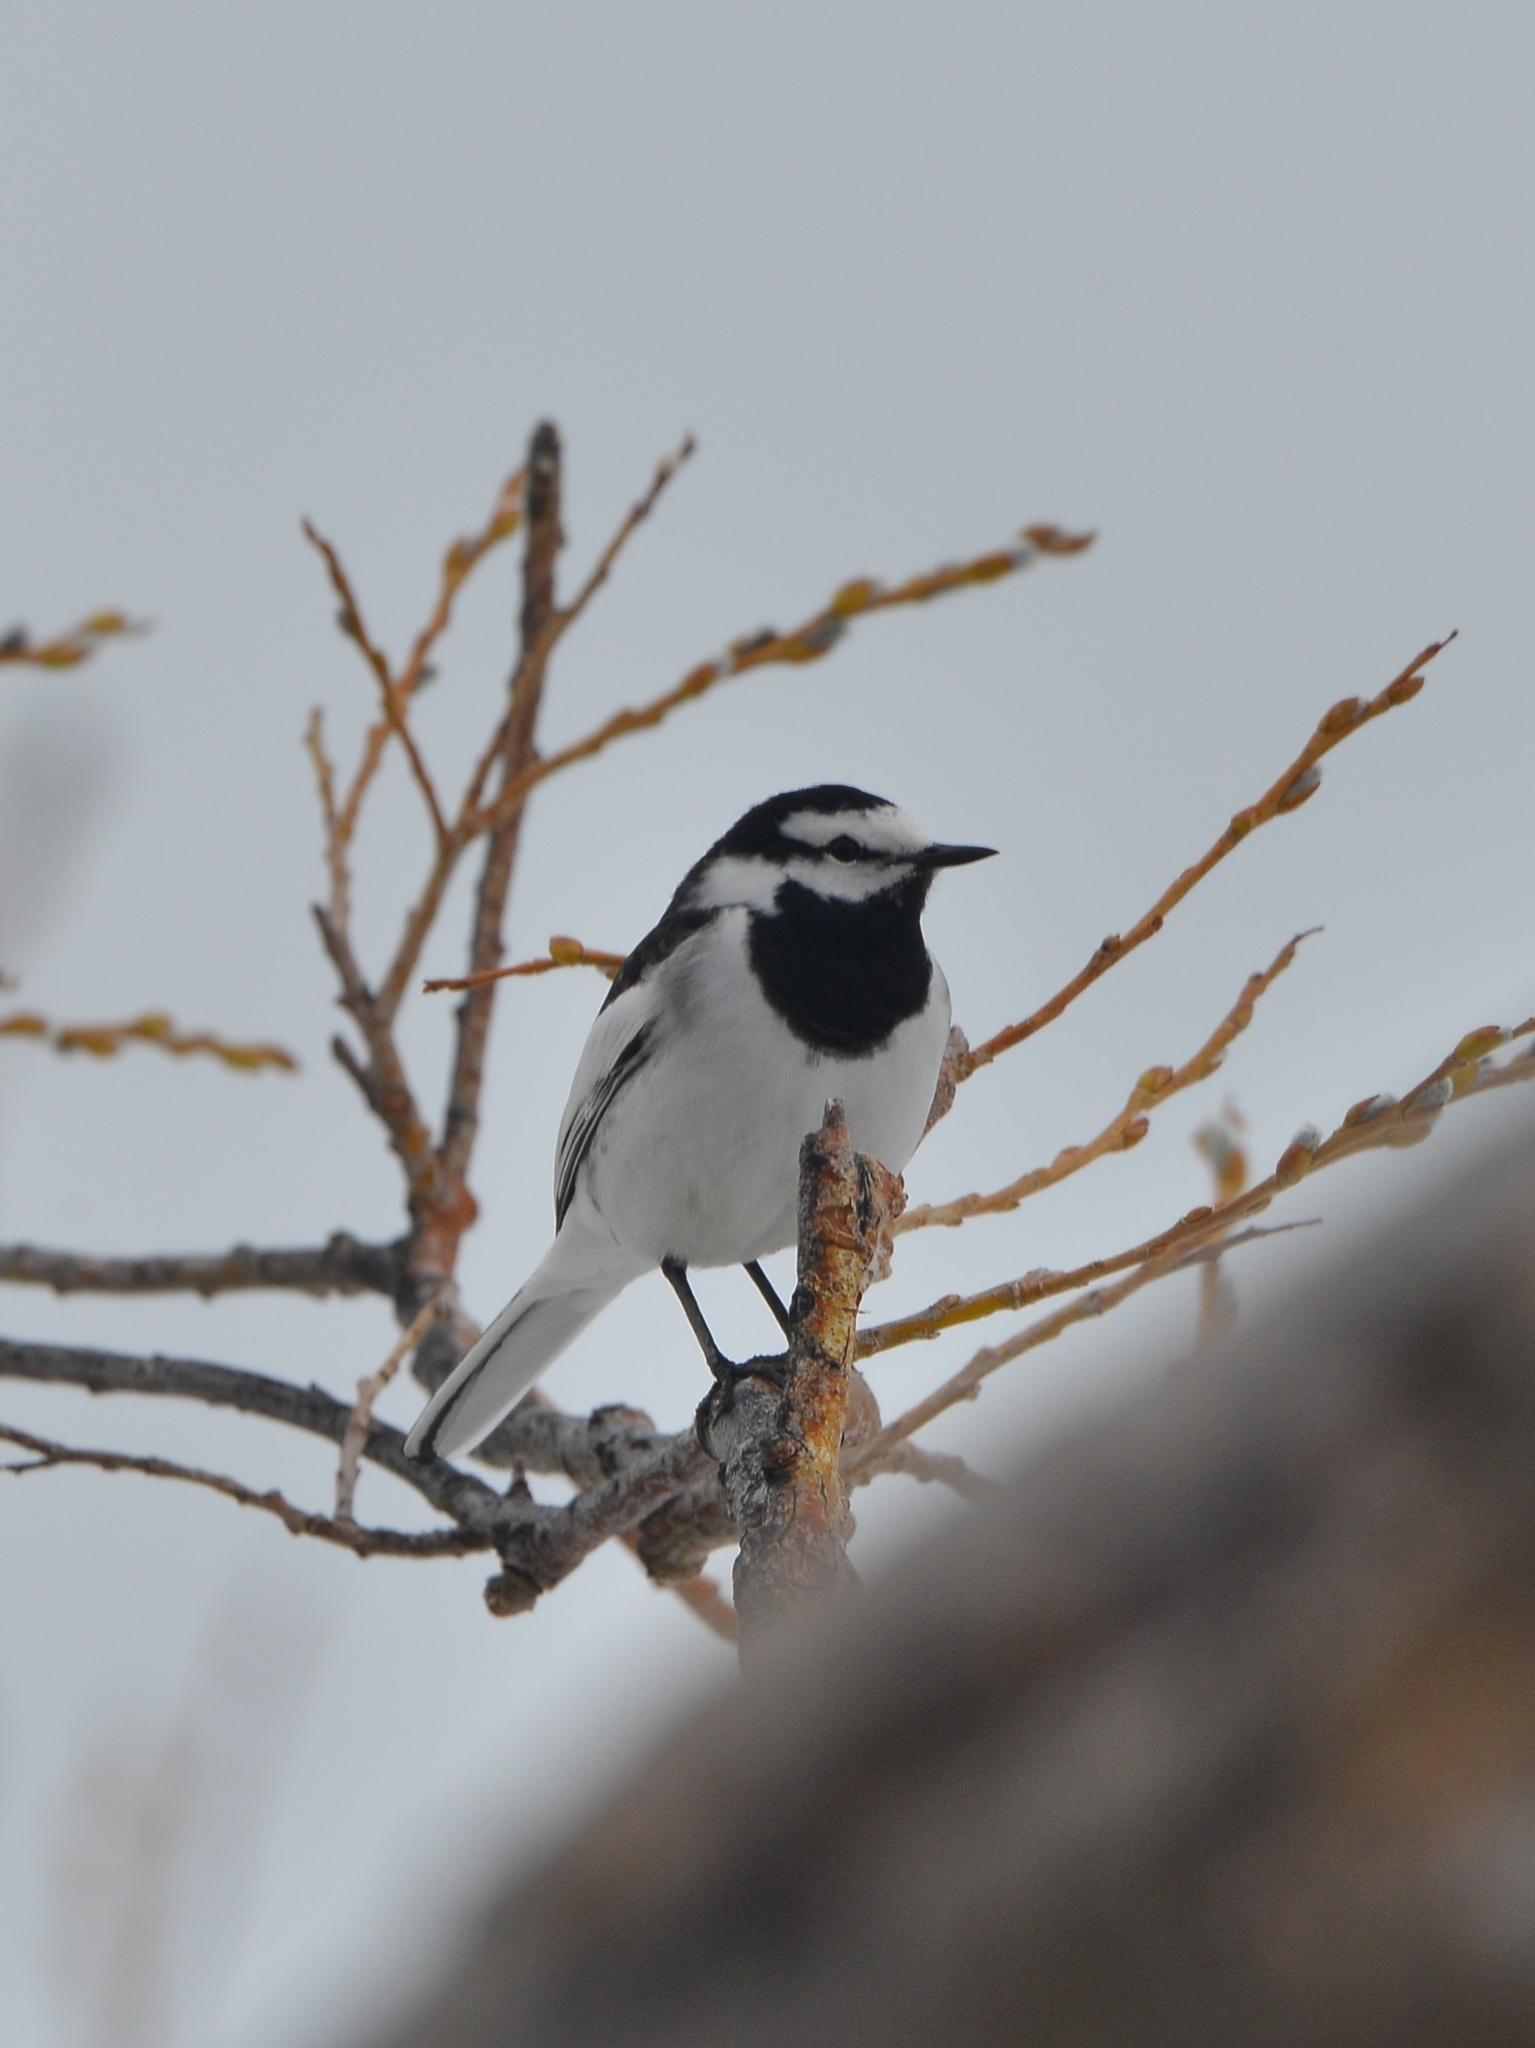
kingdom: Animalia
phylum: Chordata
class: Aves
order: Passeriformes
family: Motacillidae
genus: Motacilla
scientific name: Motacilla alba
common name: White wagtail
